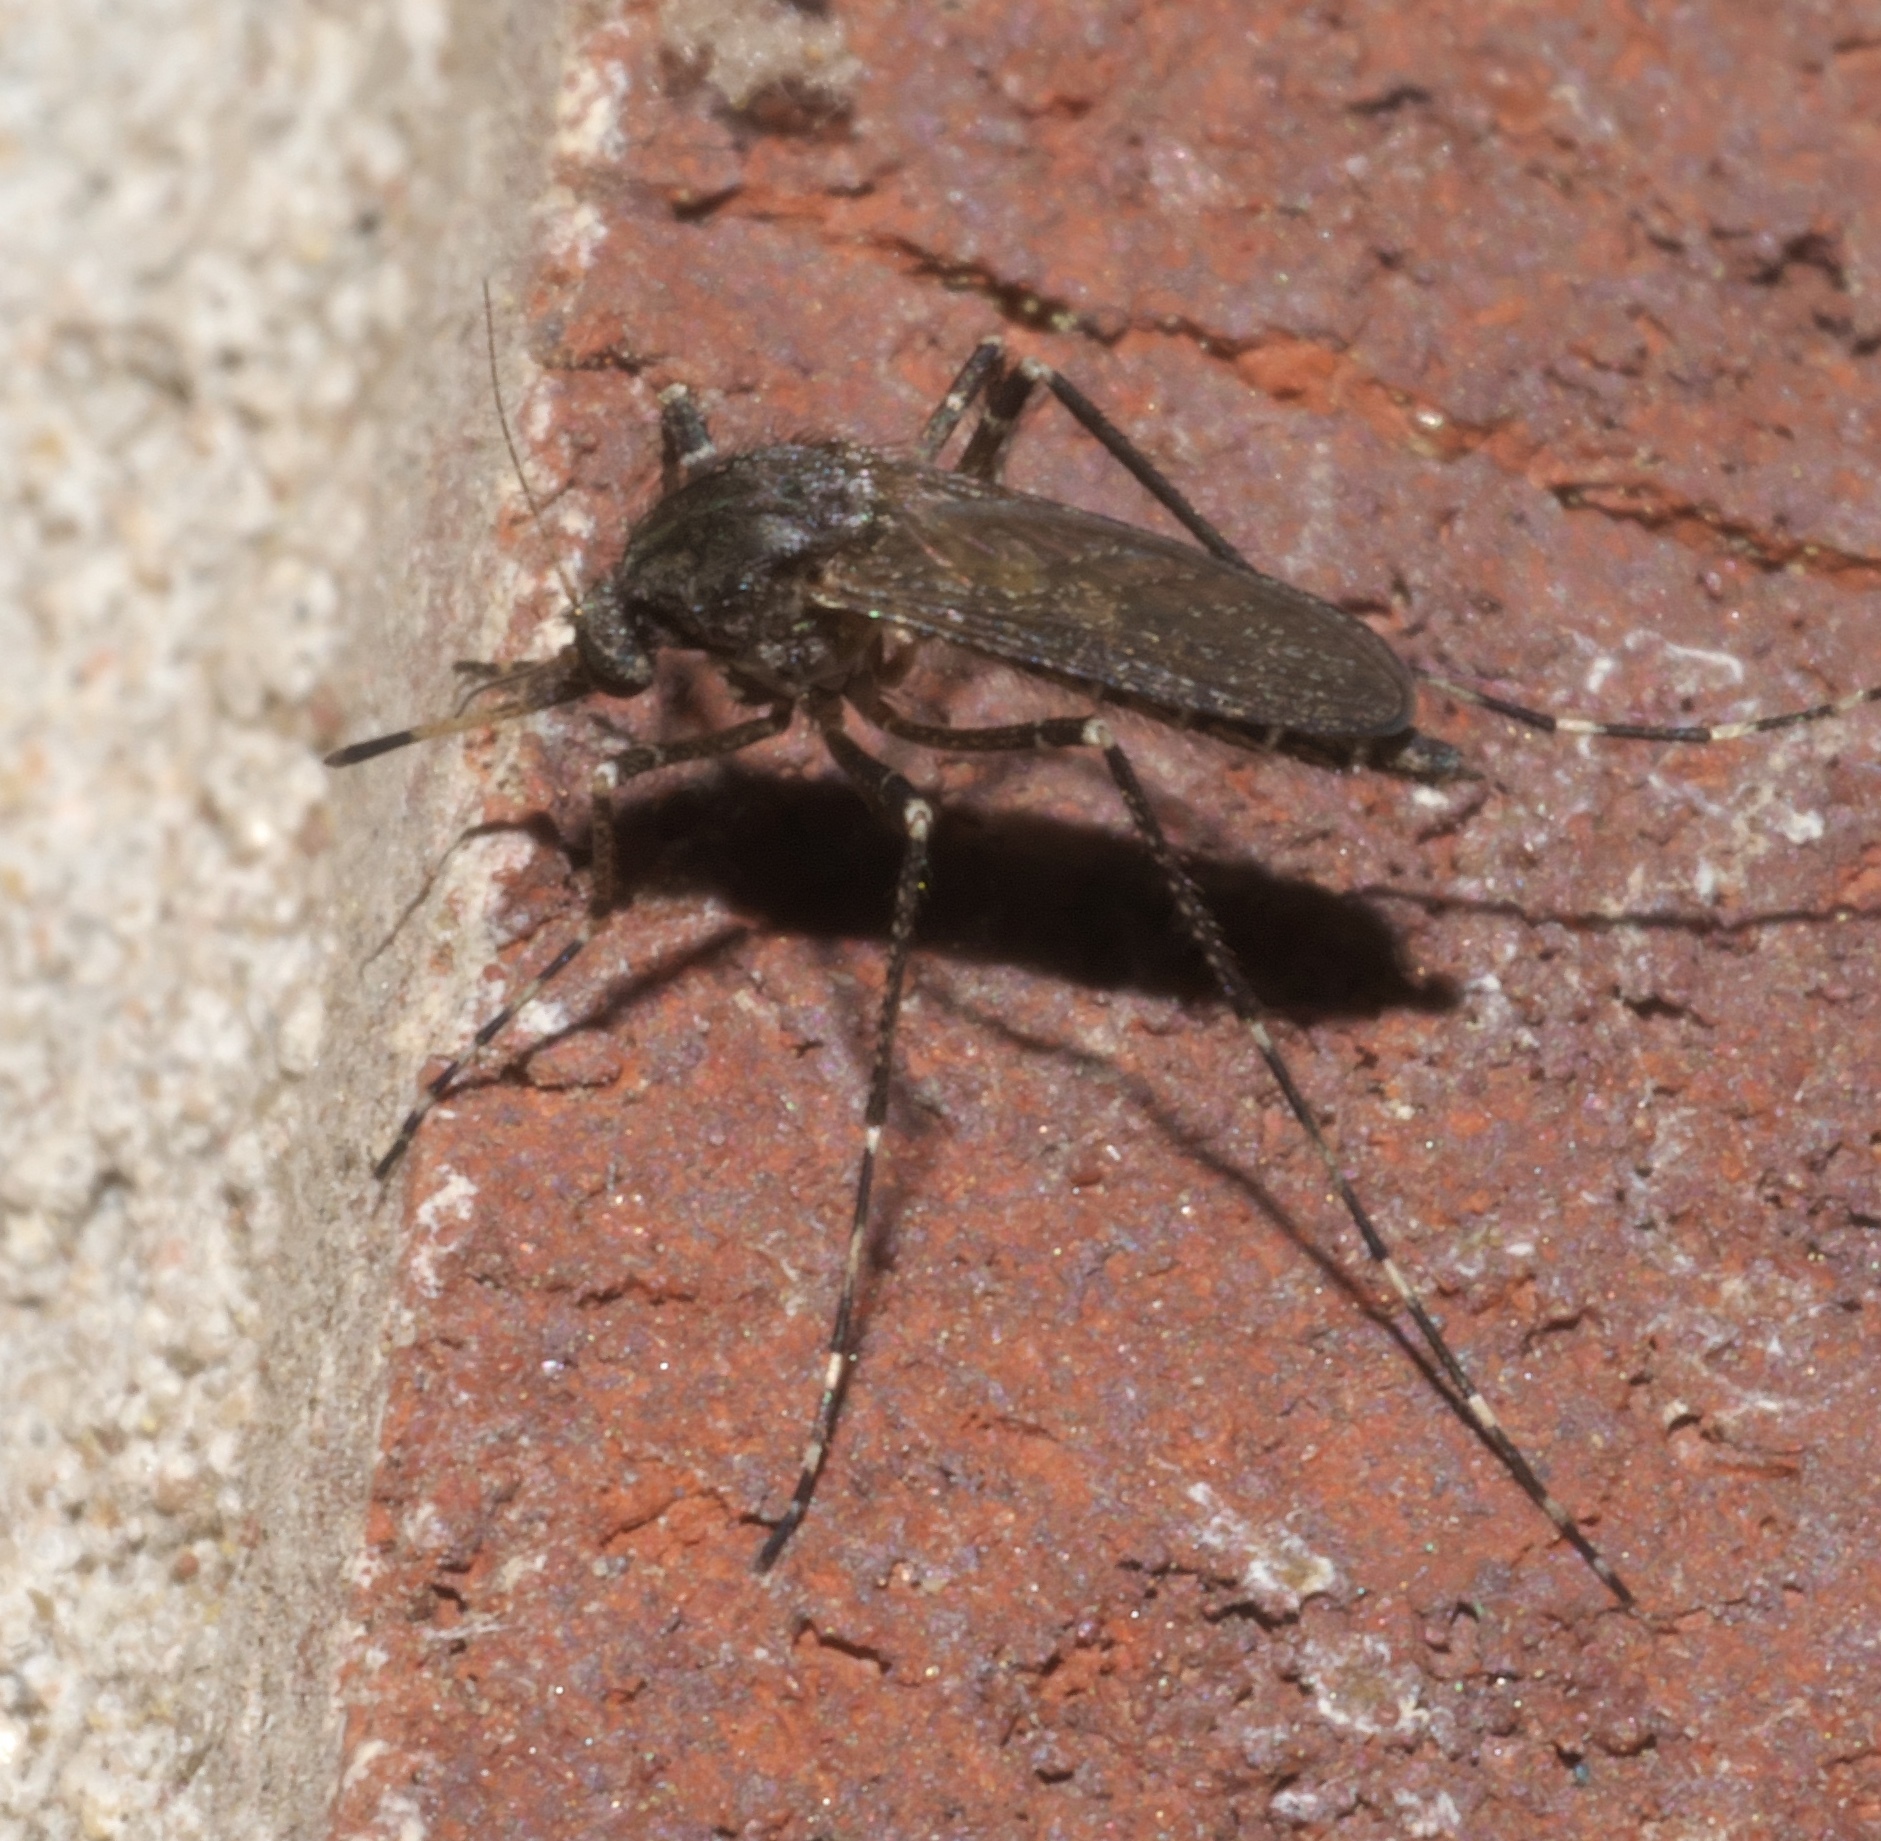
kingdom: Animalia
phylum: Arthropoda
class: Insecta
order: Diptera
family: Culicidae
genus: Psorophora
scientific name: Psorophora columbiae
